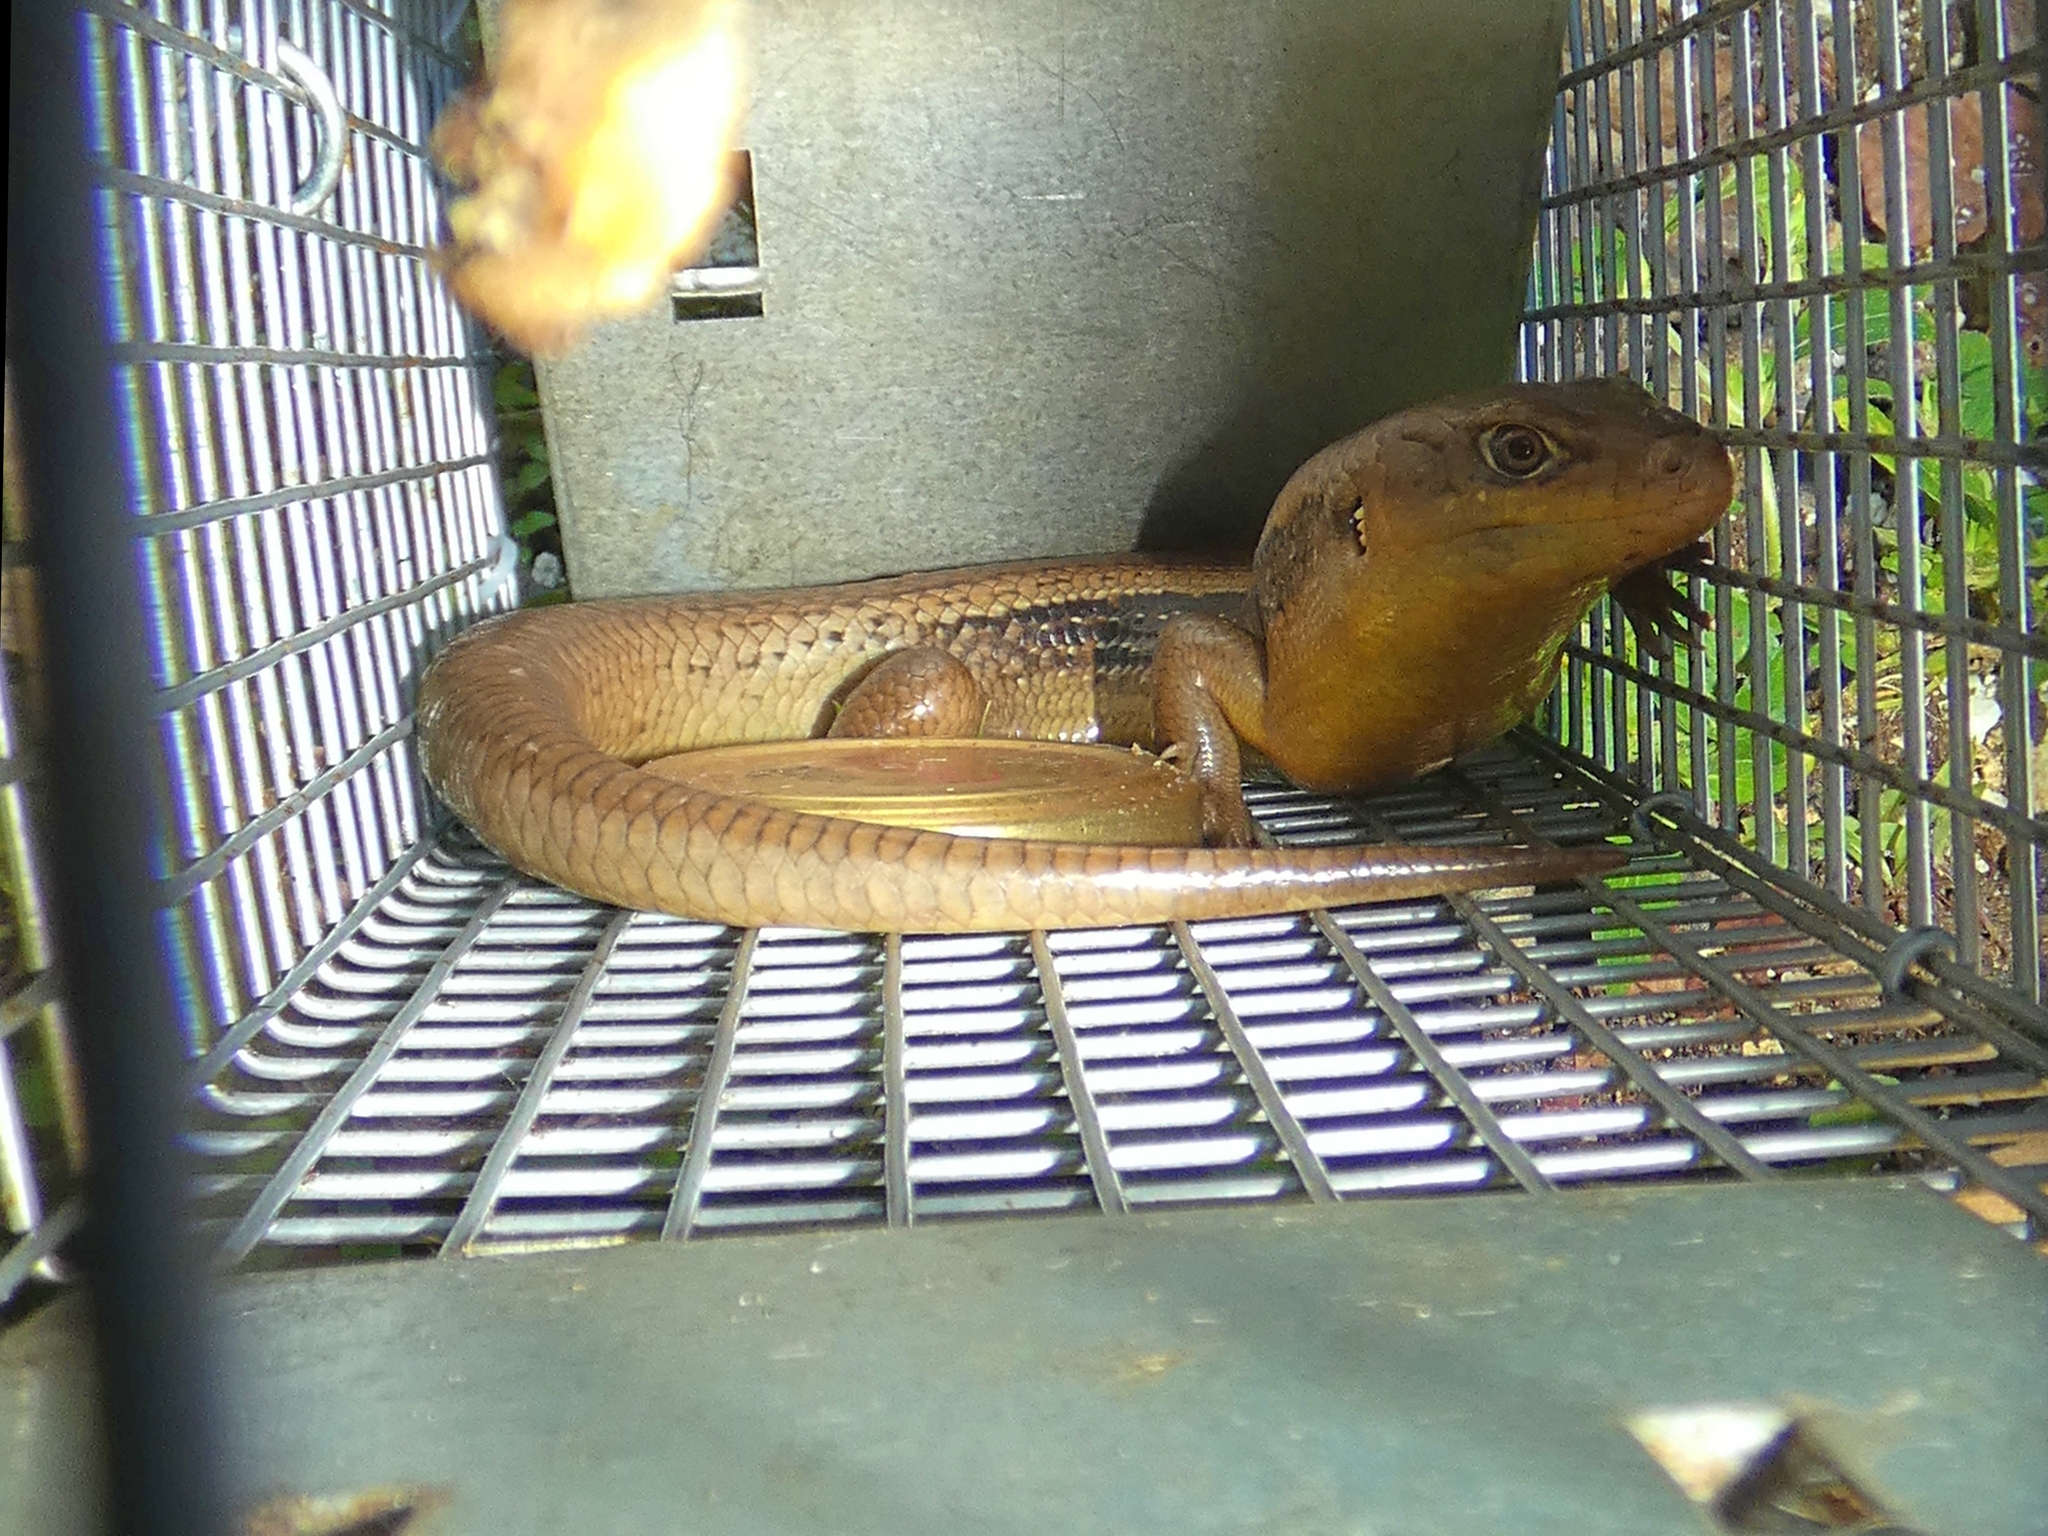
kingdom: Animalia
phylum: Chordata
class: Squamata
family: Scincidae
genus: Bellatorias
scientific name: Bellatorias frerei
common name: Major skink
